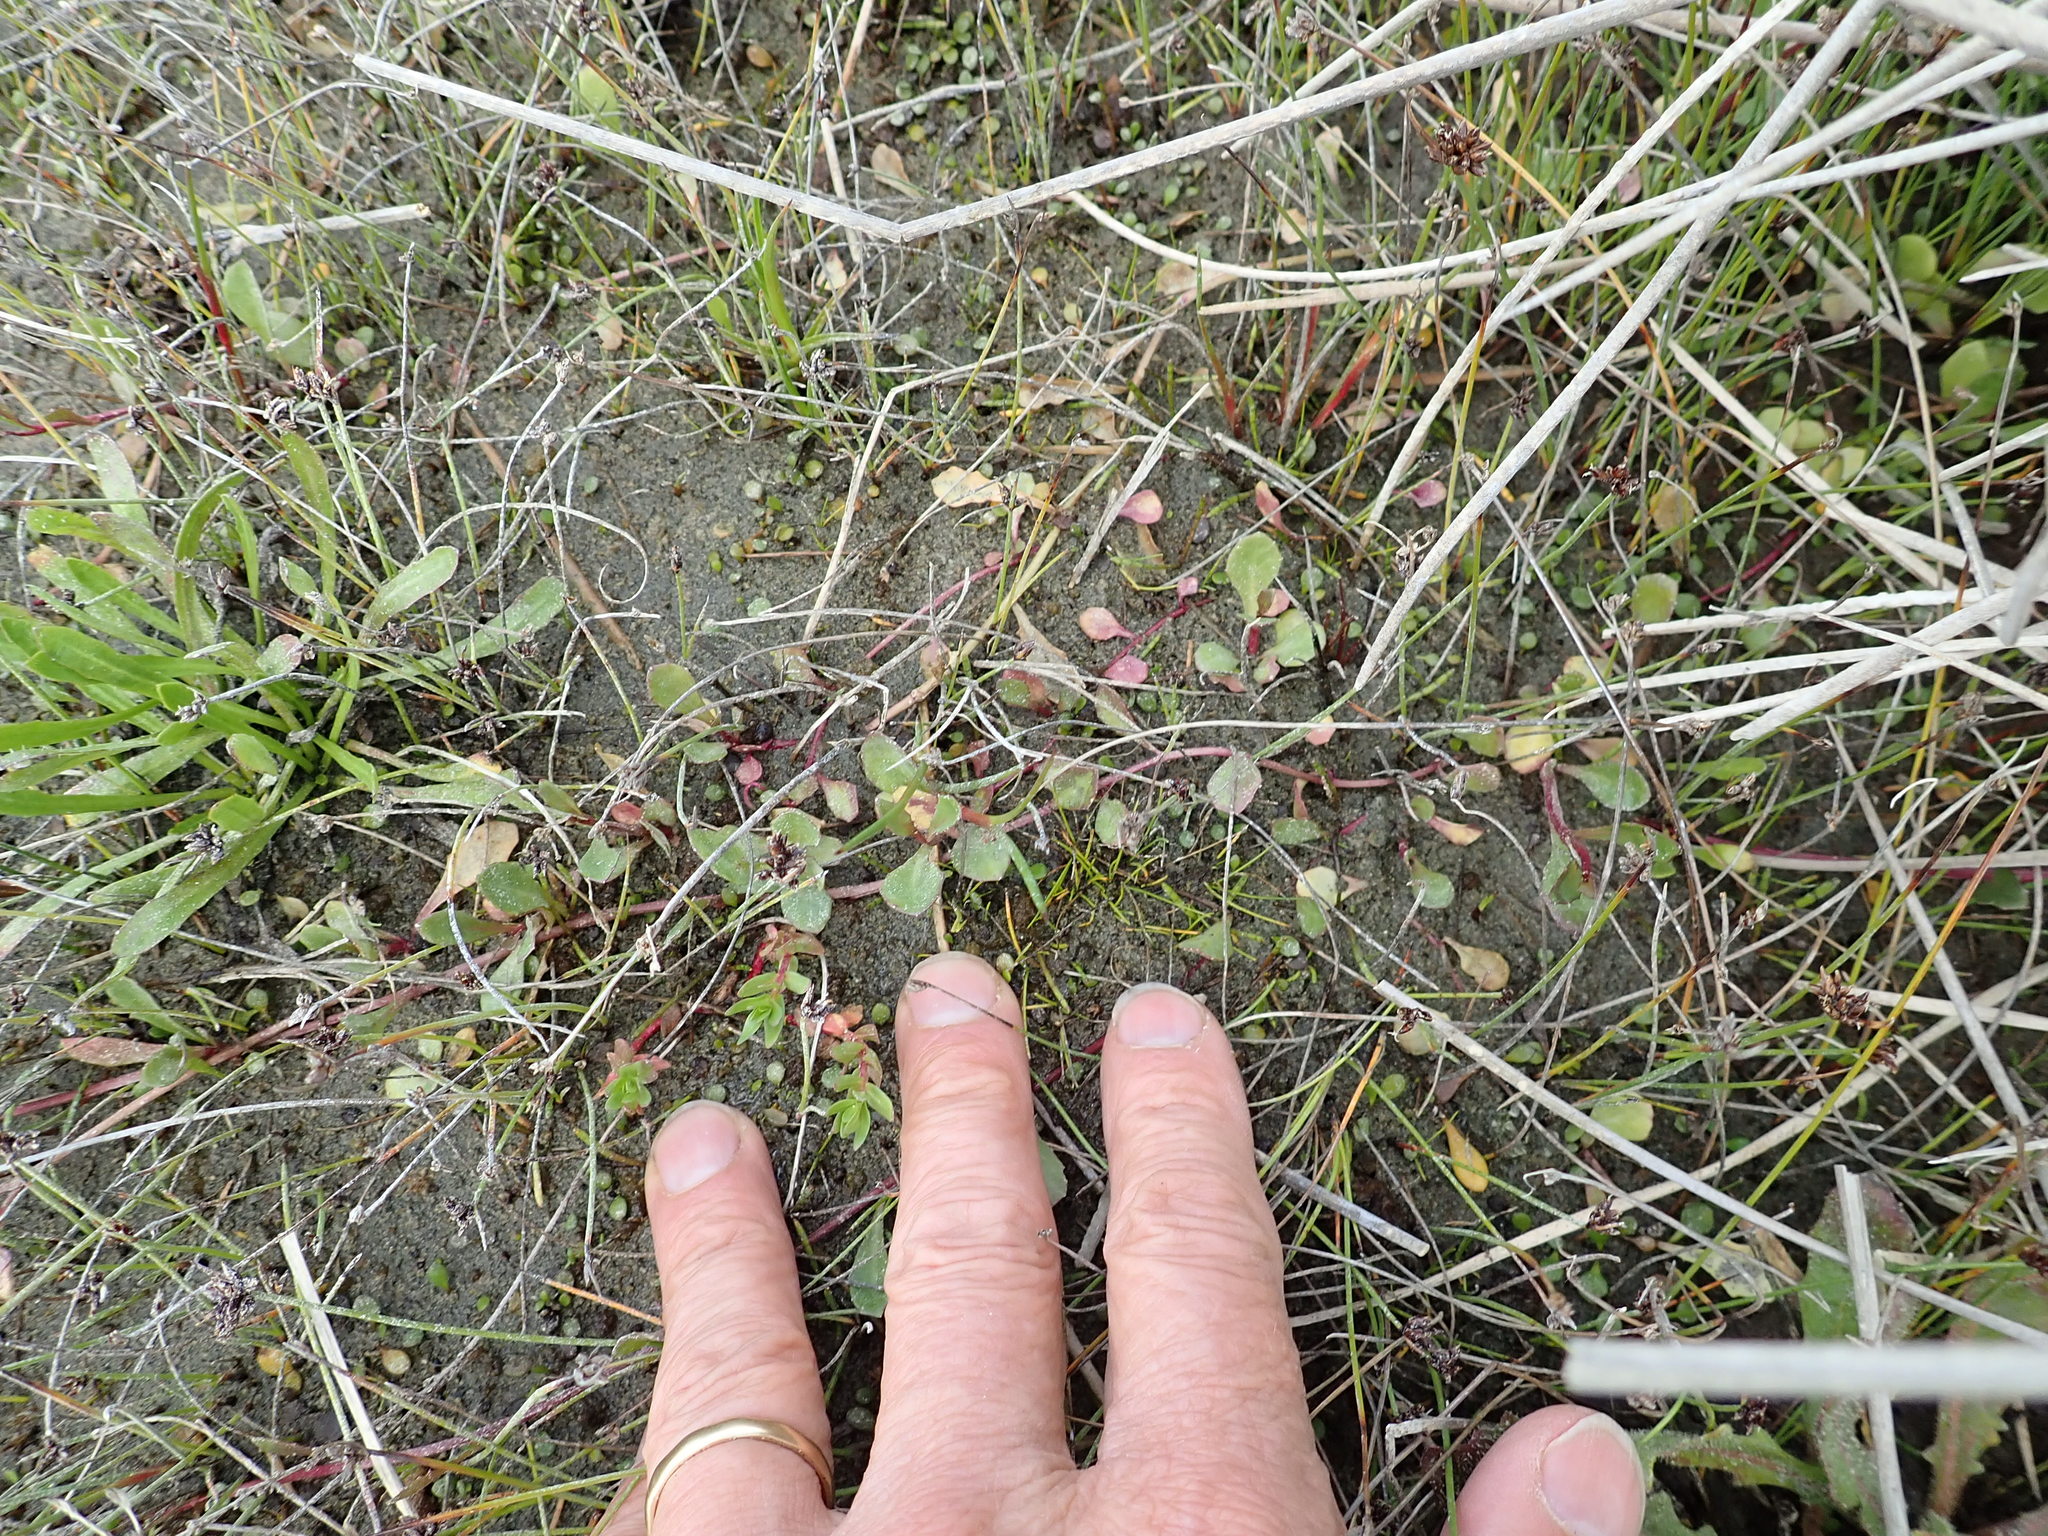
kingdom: Plantae
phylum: Tracheophyta
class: Magnoliopsida
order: Asterales
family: Campanulaceae
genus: Lobelia
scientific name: Lobelia anceps
